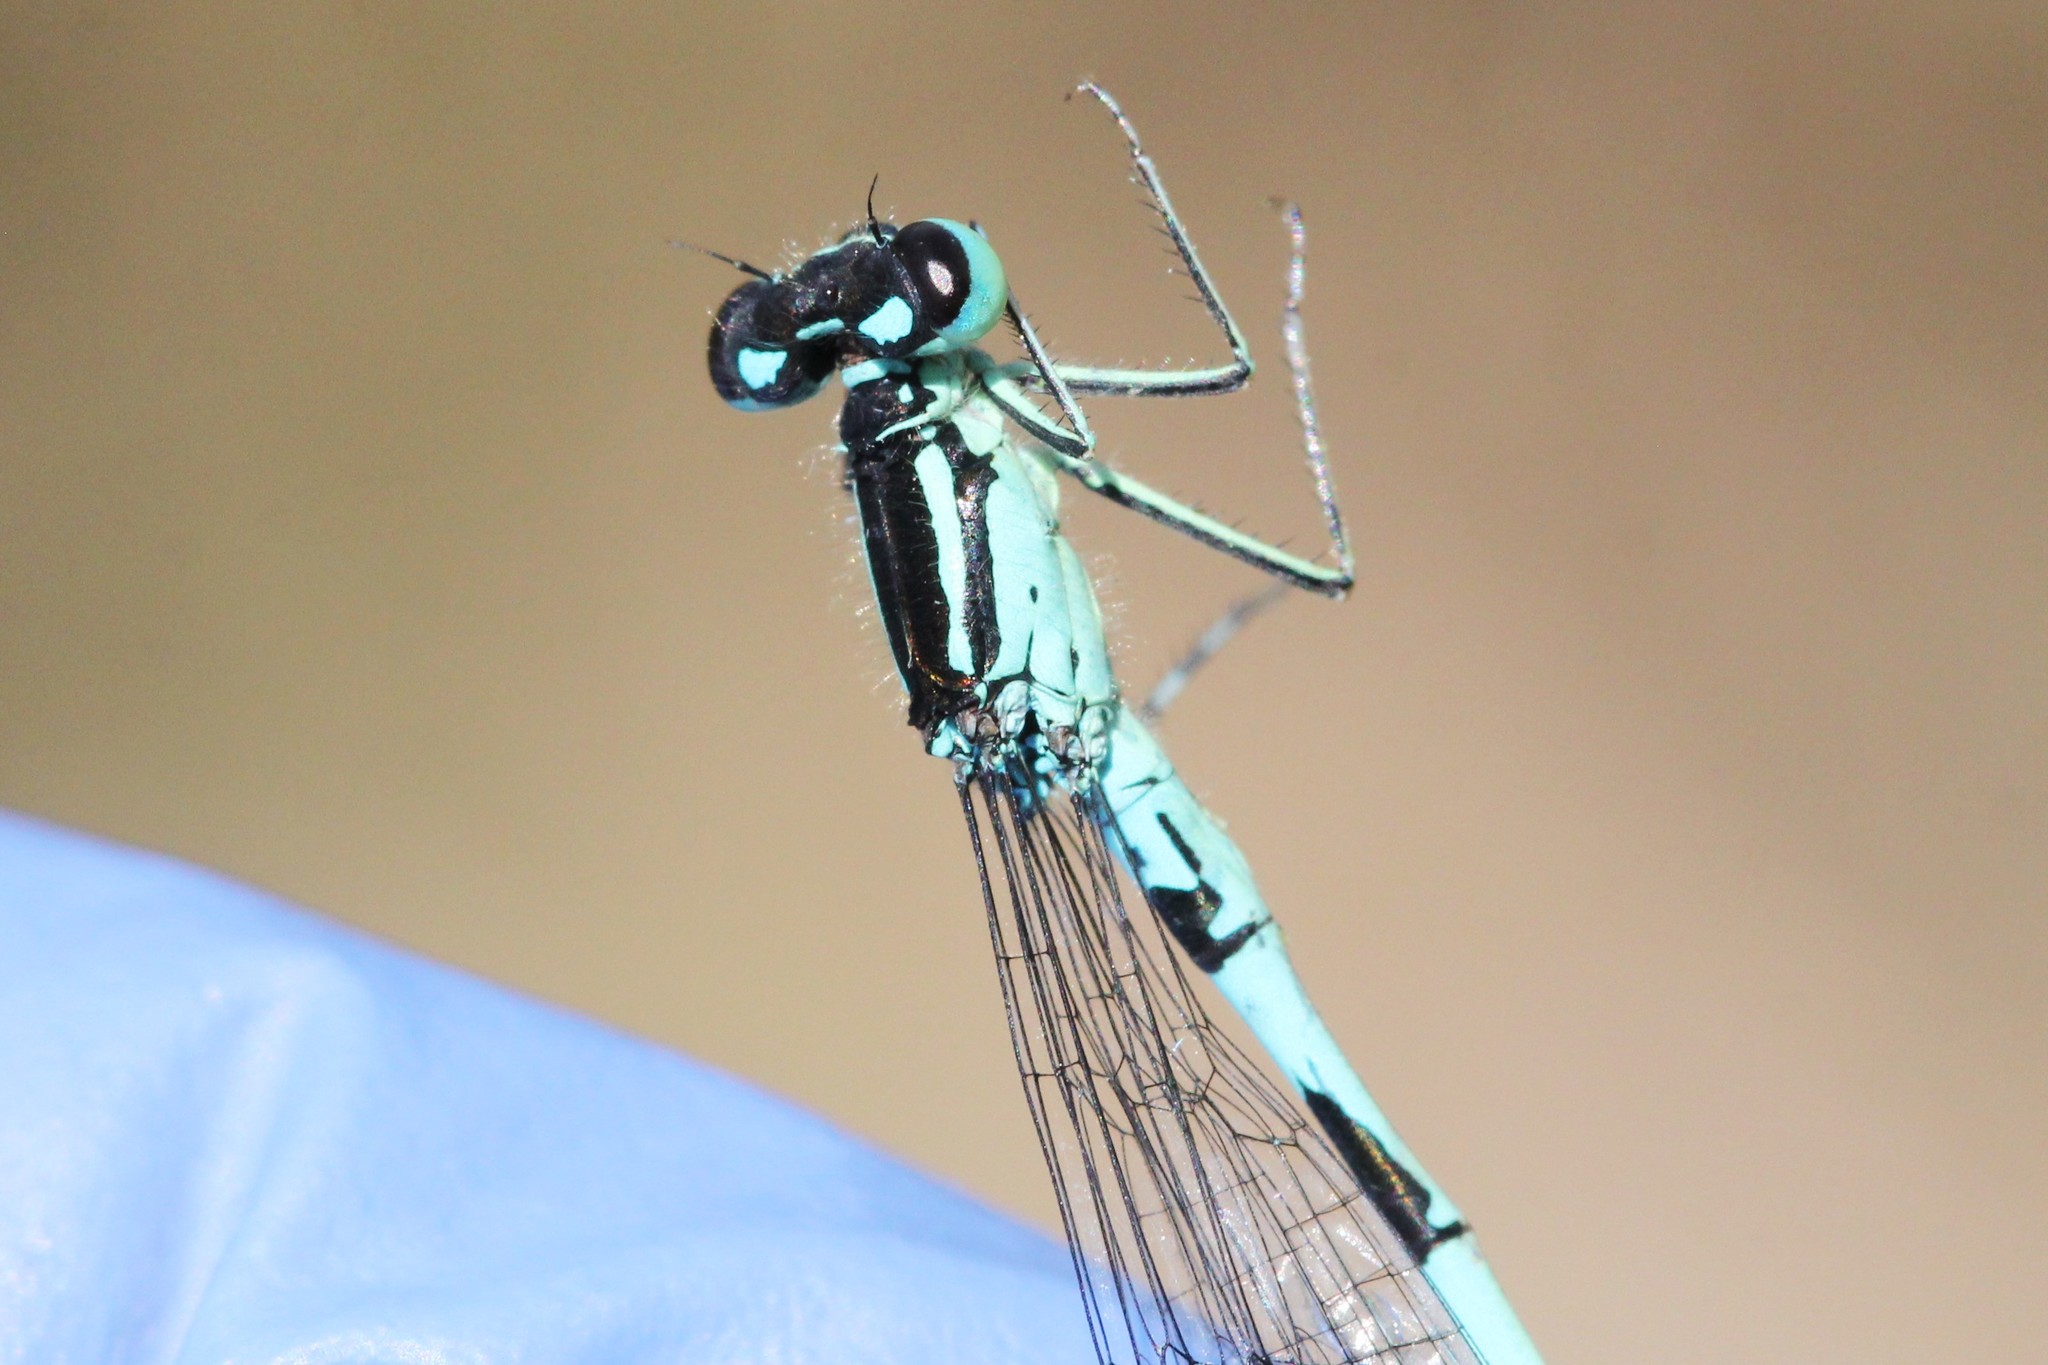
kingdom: Animalia
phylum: Arthropoda
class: Insecta
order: Odonata
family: Coenagrionidae
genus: Coenagrion
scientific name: Coenagrion resolutum
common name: Taiga bluet
